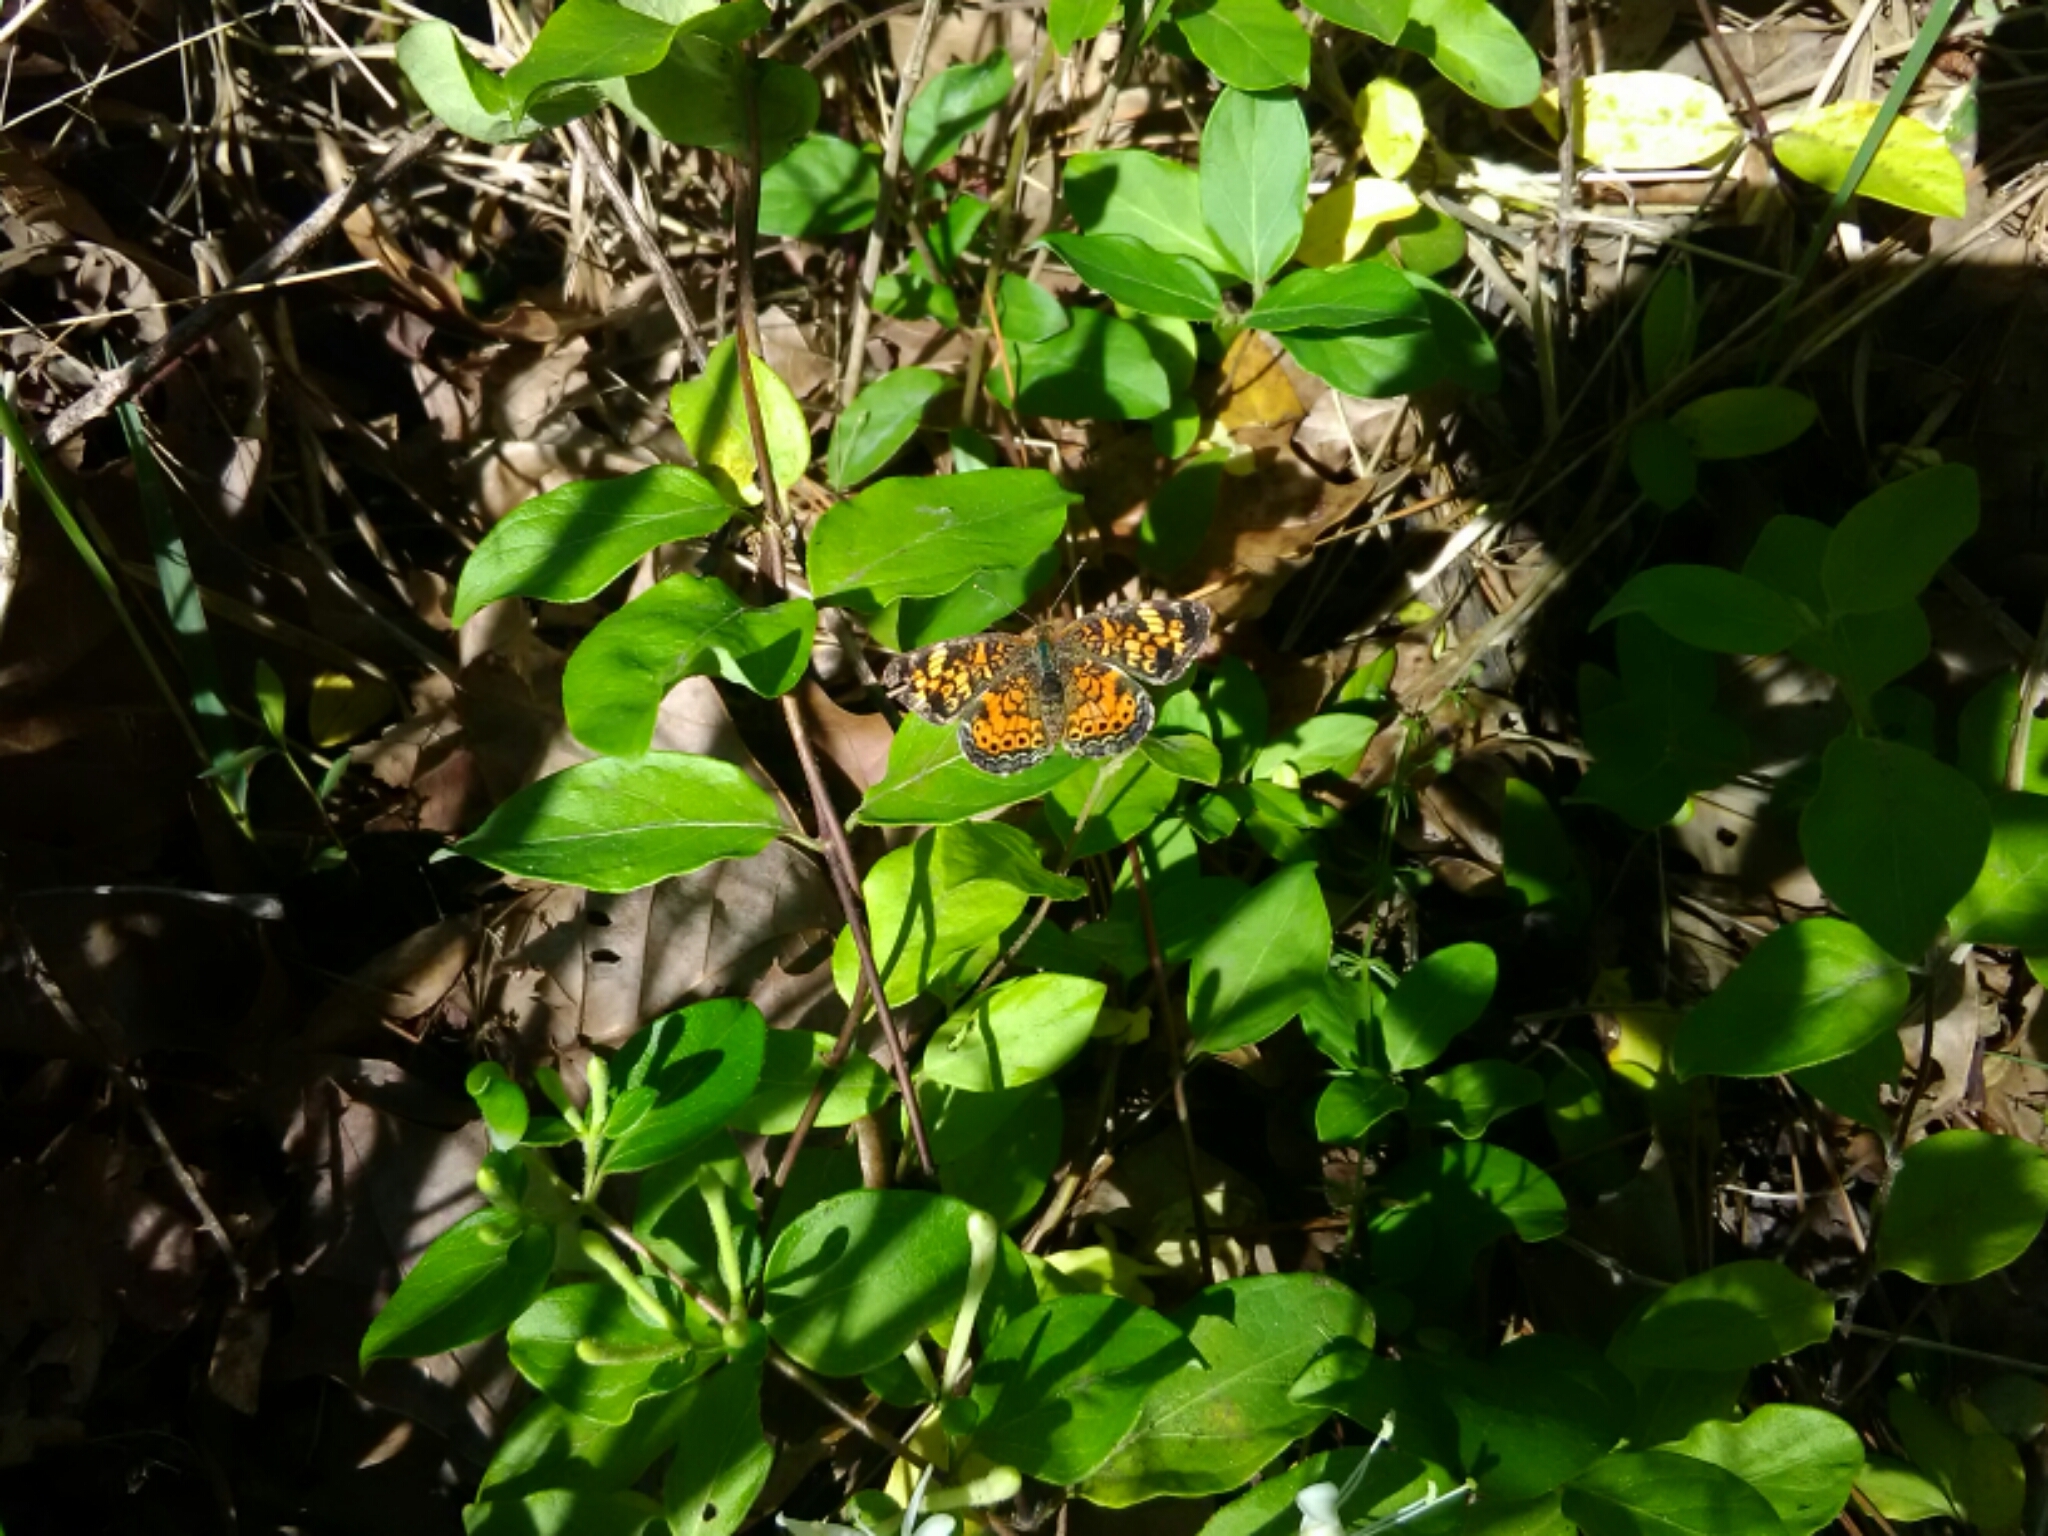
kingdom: Animalia
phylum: Arthropoda
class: Insecta
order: Lepidoptera
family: Nymphalidae
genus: Phyciodes
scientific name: Phyciodes tharos
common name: Pearl crescent
